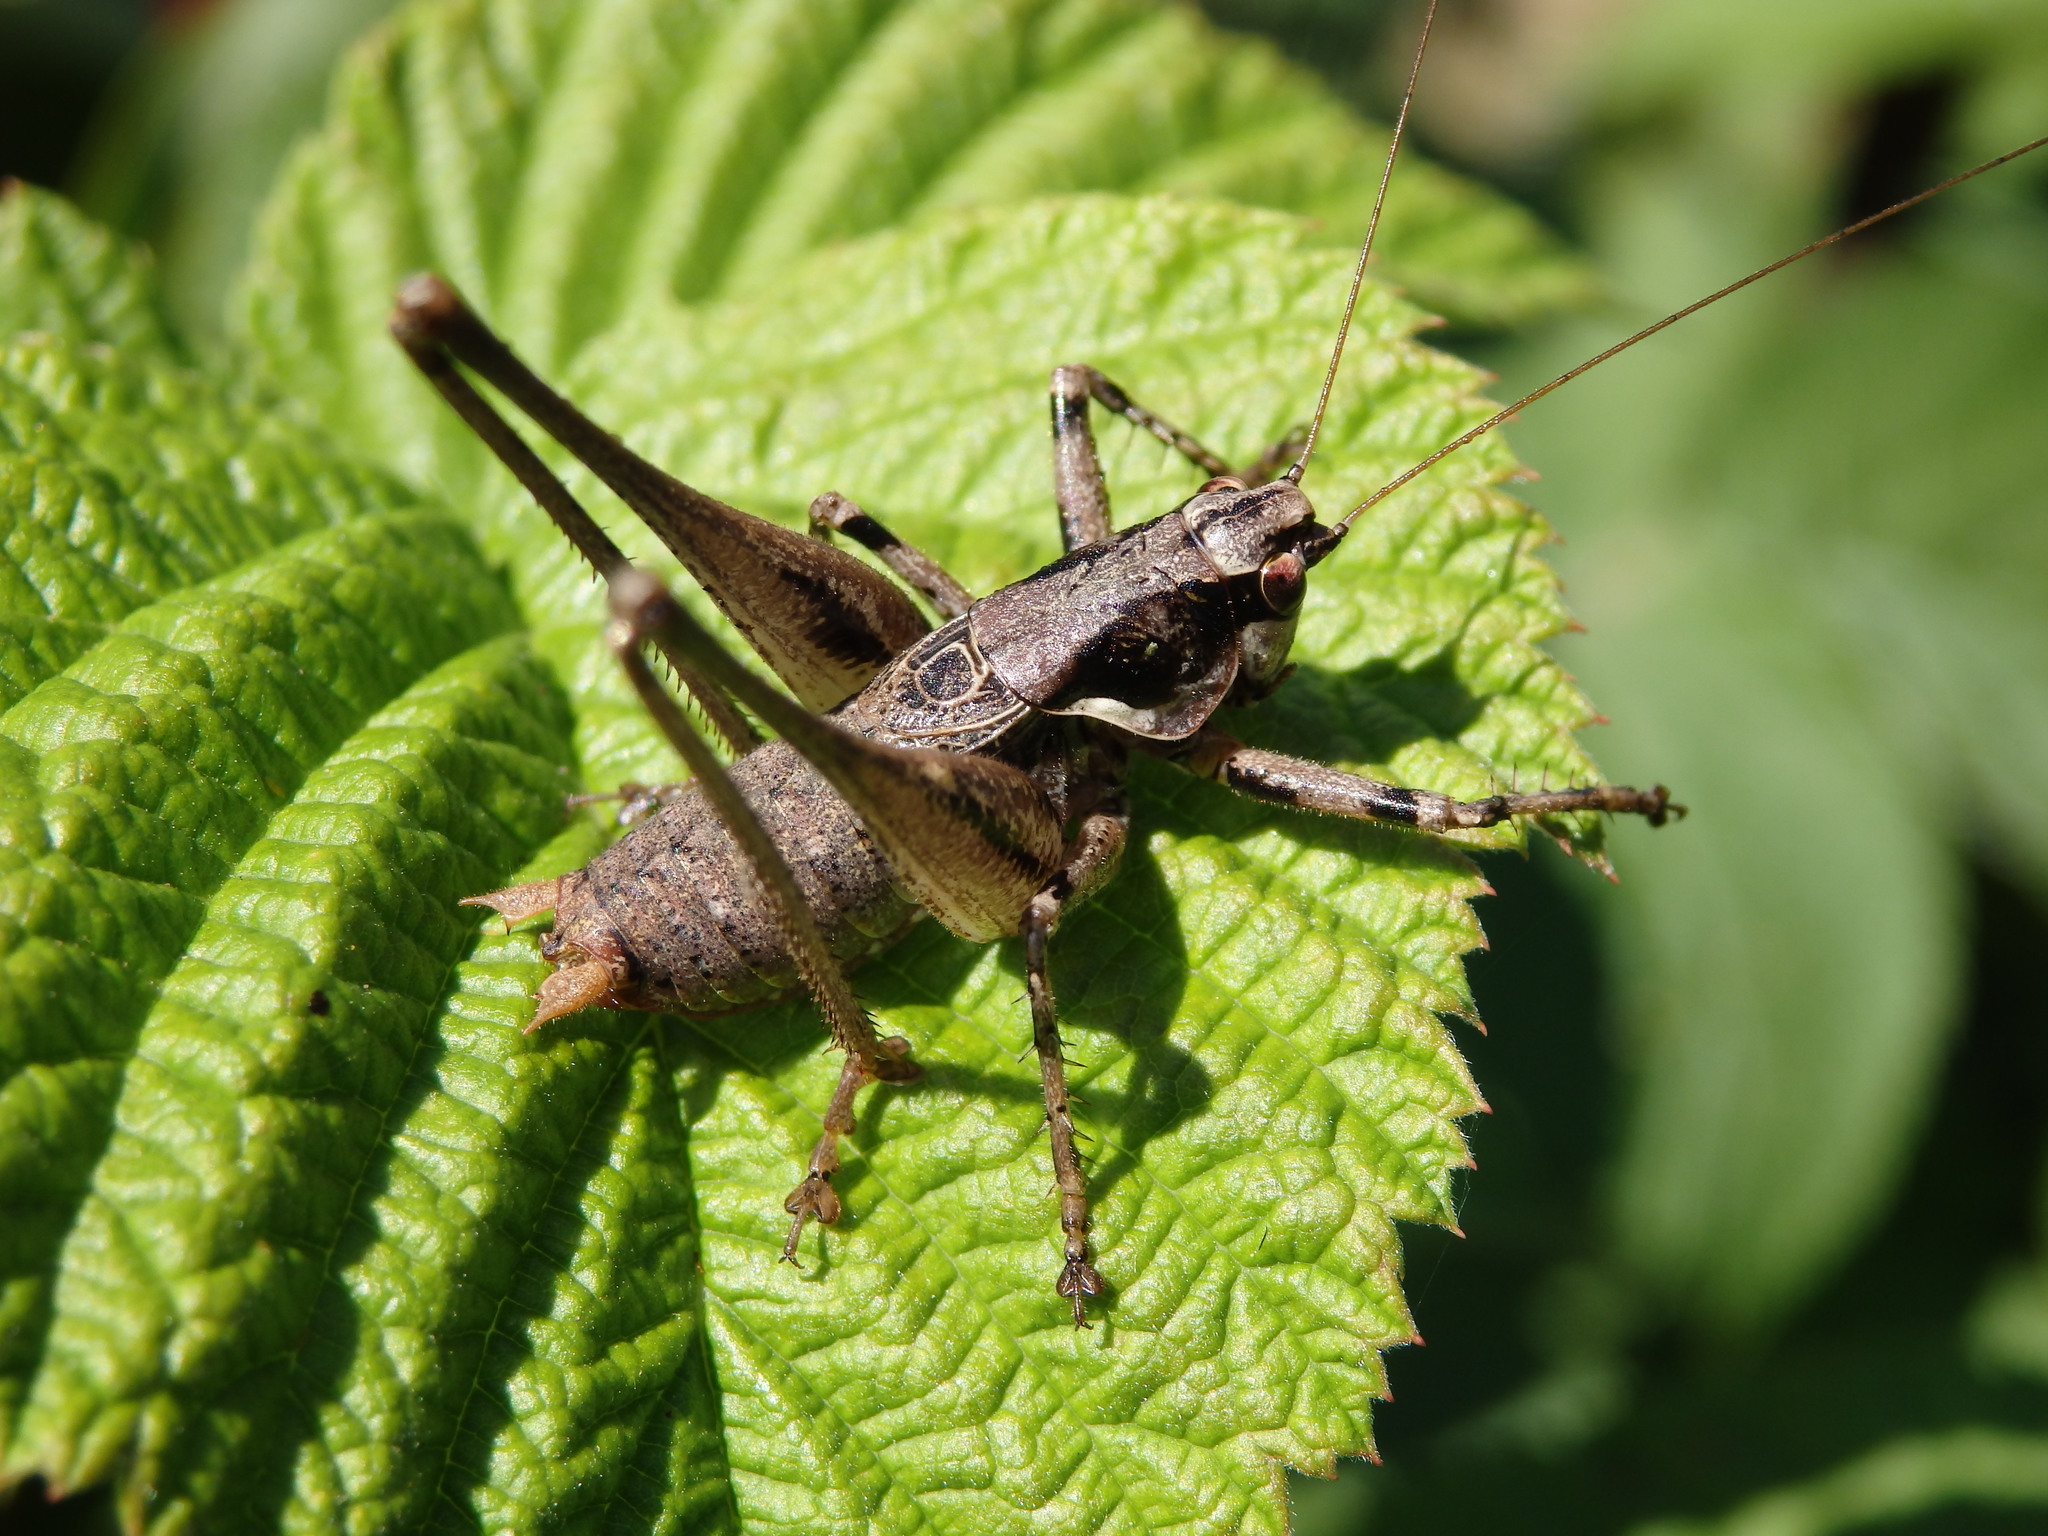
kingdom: Animalia
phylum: Arthropoda
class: Insecta
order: Orthoptera
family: Tettigoniidae
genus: Antaxius
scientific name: Antaxius spinibrachius
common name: Spiny-legged bush-cricket
